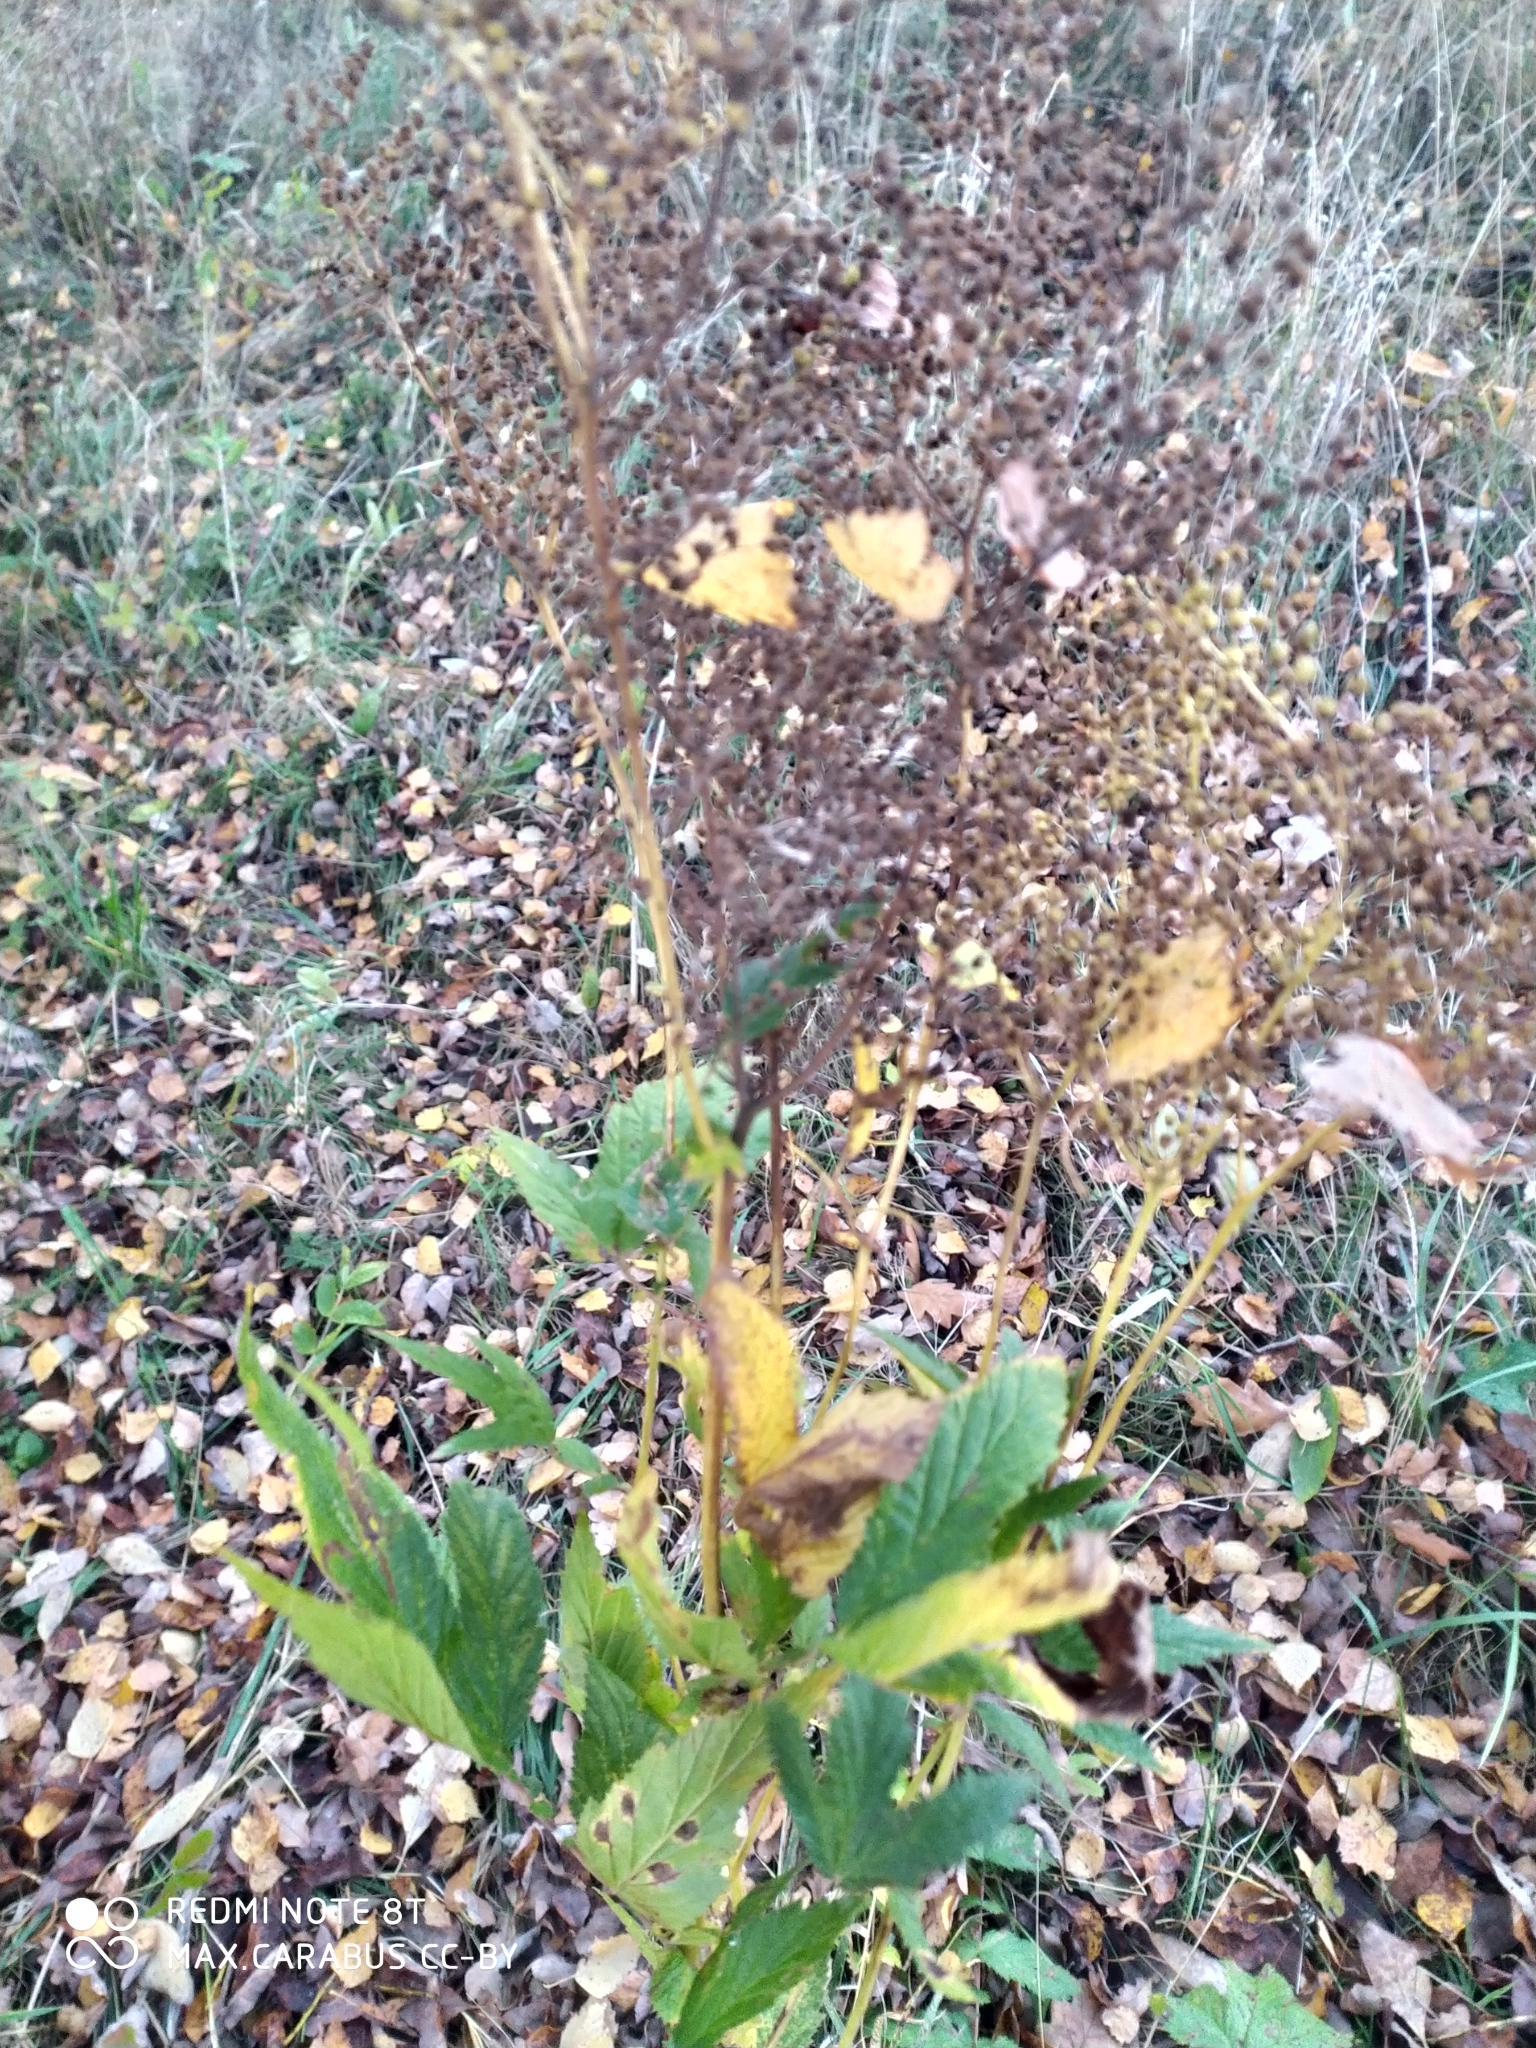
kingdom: Plantae
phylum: Tracheophyta
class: Magnoliopsida
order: Rosales
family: Rosaceae
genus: Filipendula
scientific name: Filipendula ulmaria
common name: Meadowsweet
